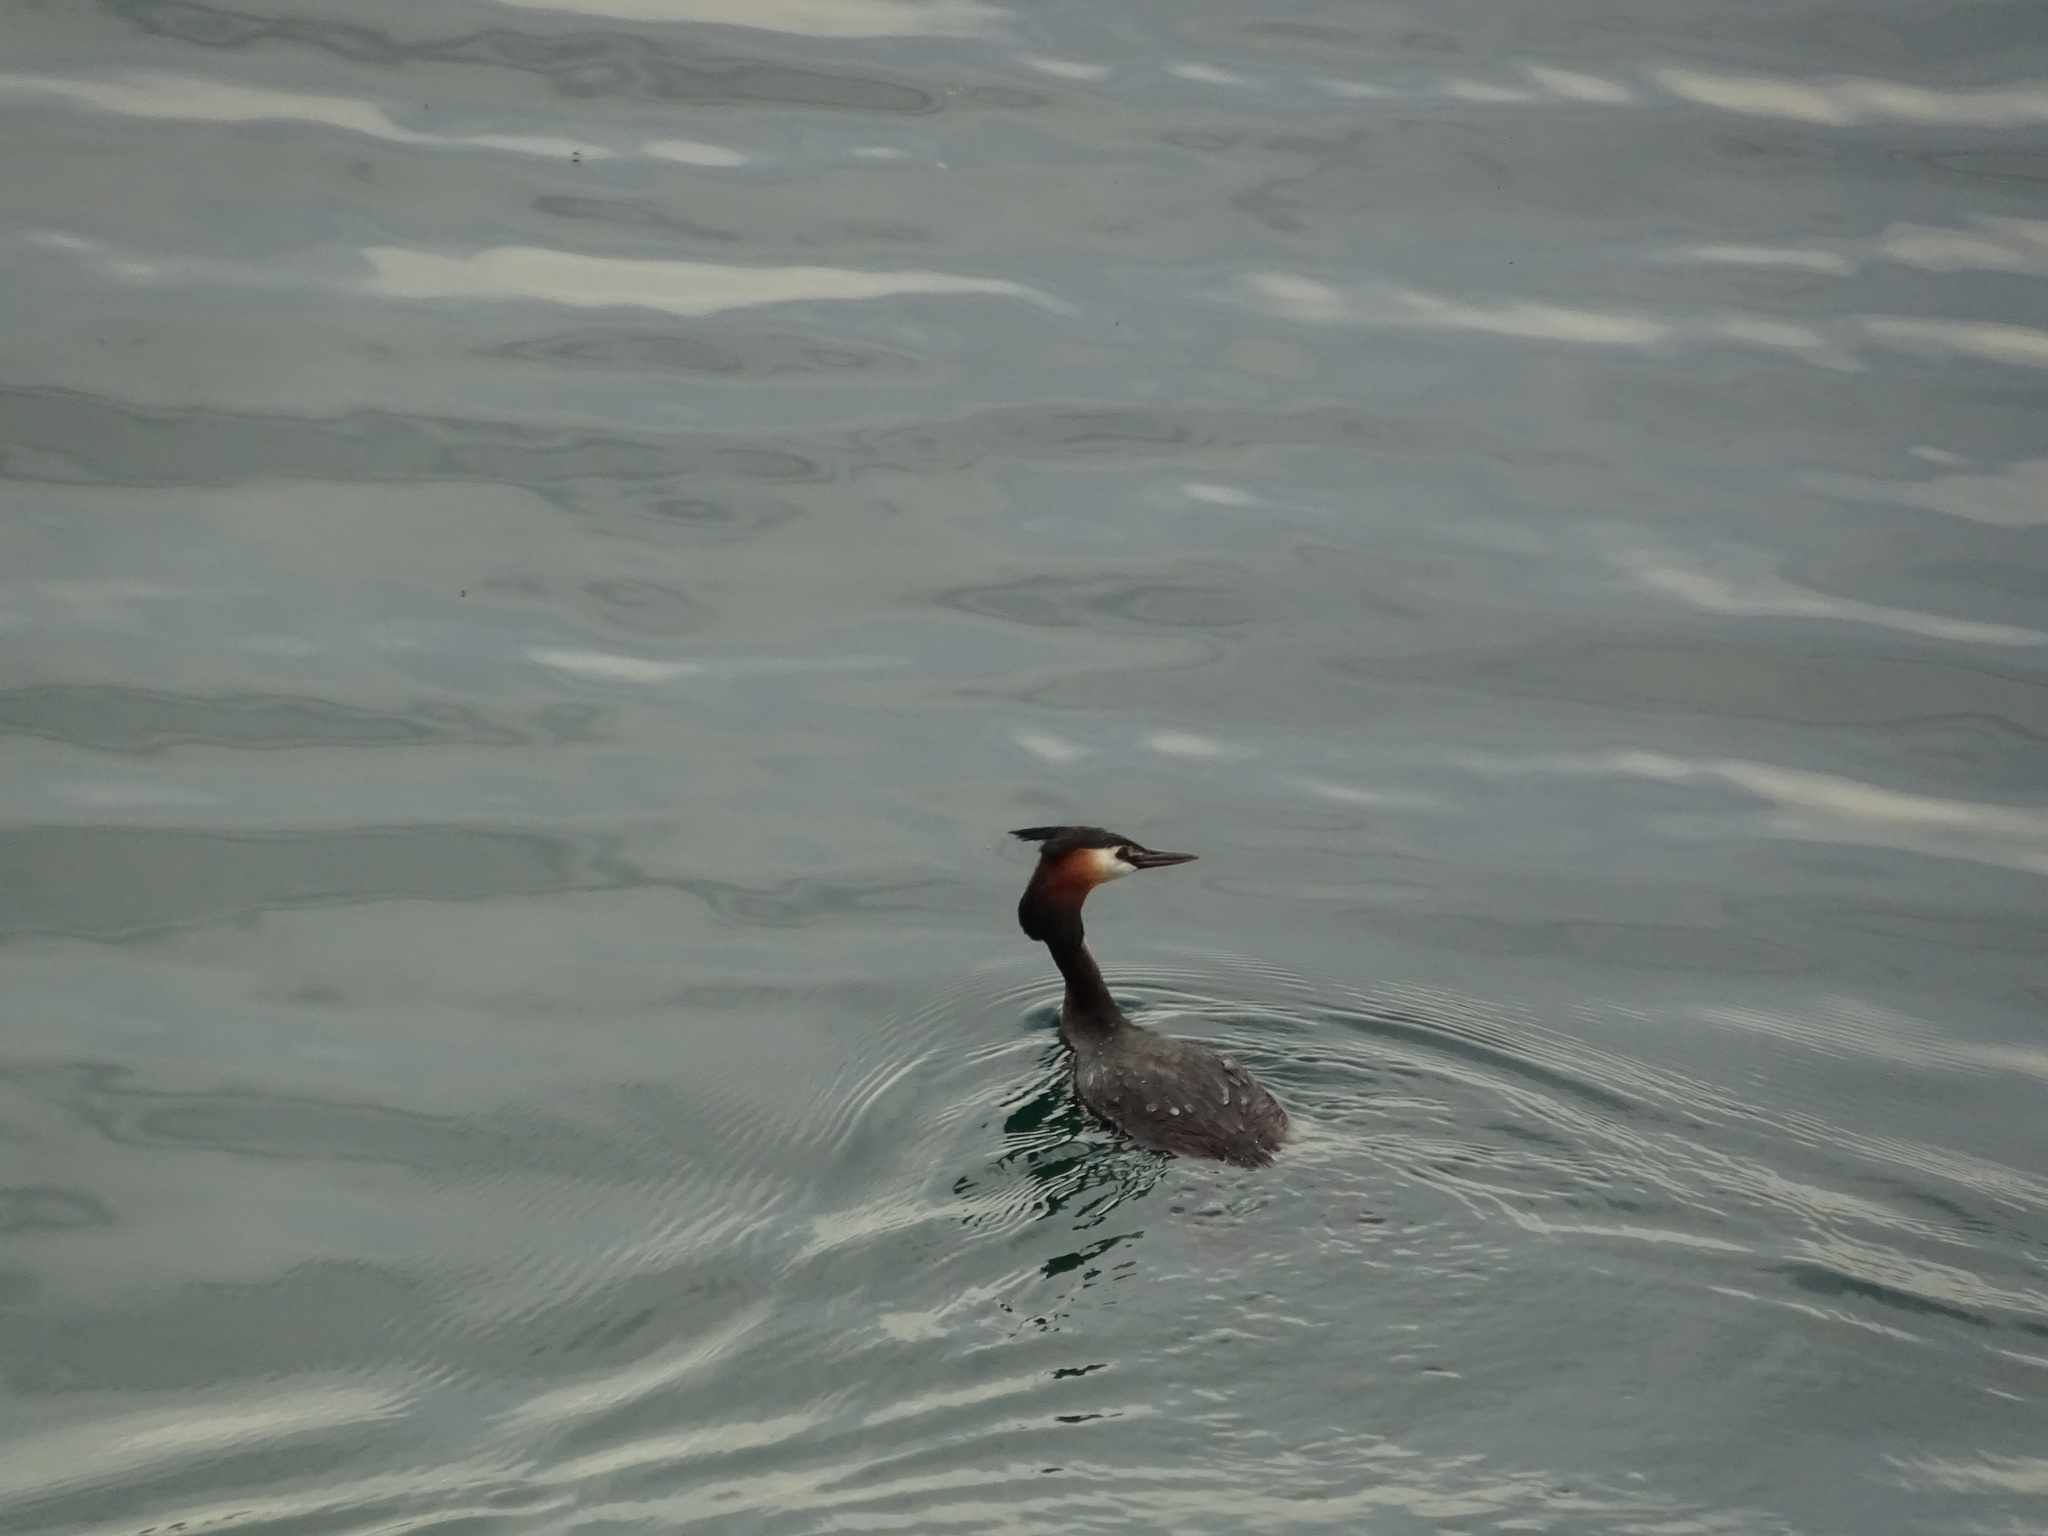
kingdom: Animalia
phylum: Chordata
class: Aves
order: Podicipediformes
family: Podicipedidae
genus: Podiceps
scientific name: Podiceps cristatus
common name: Great crested grebe
